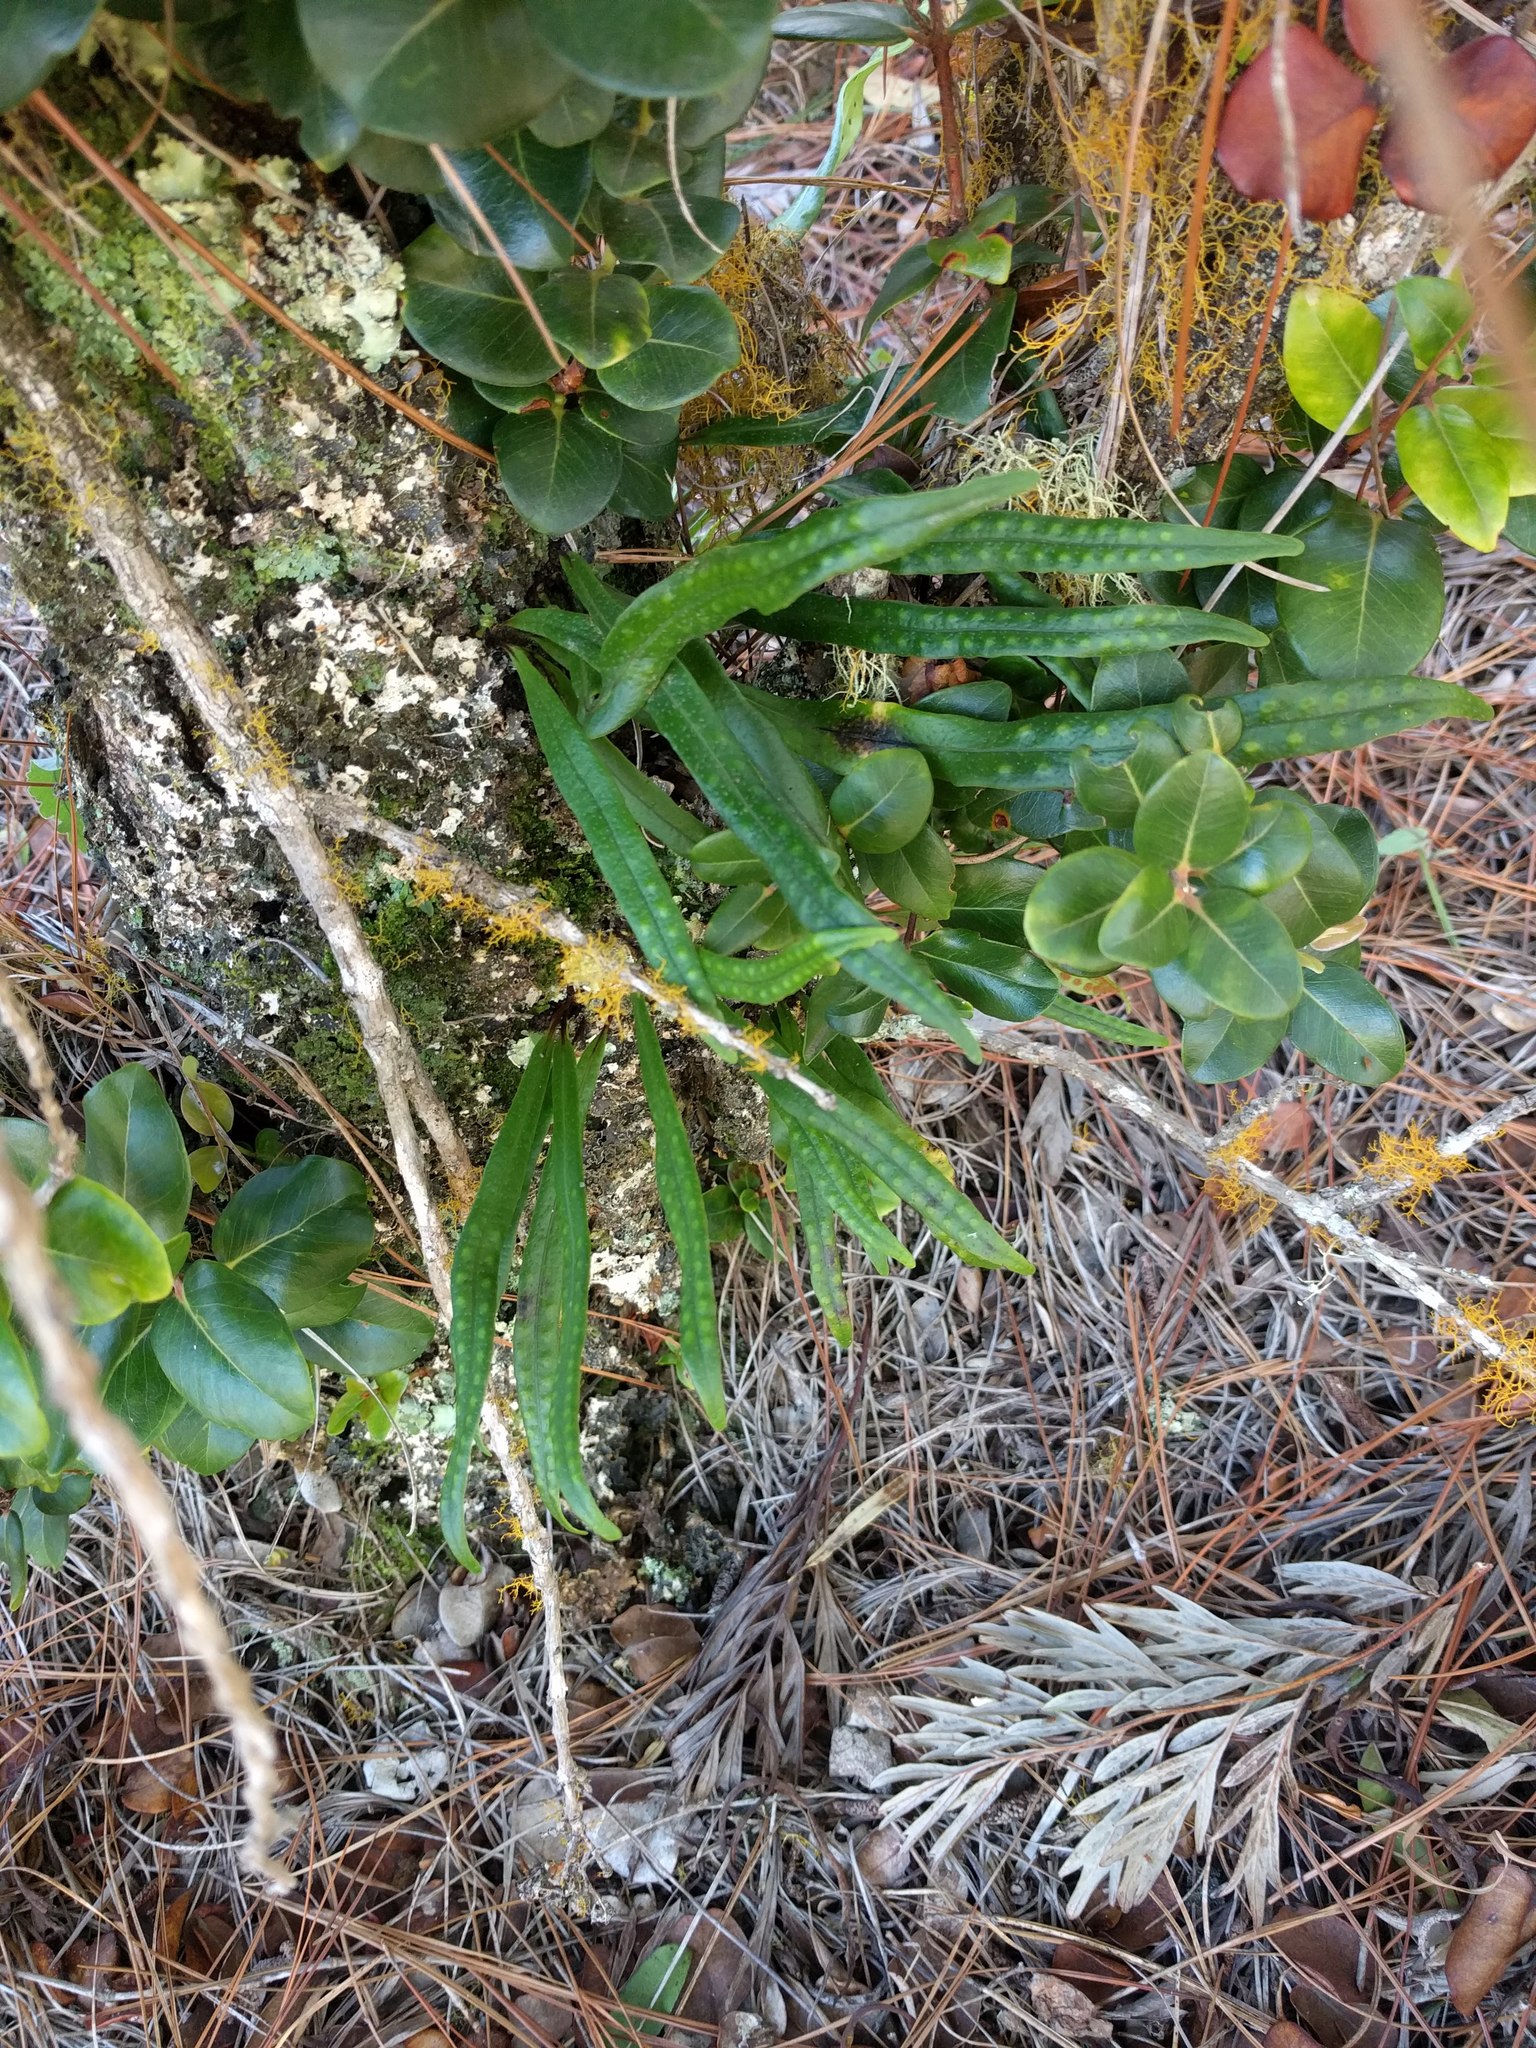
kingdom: Plantae
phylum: Tracheophyta
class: Polypodiopsida
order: Polypodiales
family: Polypodiaceae
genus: Lepisorus
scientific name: Lepisorus thunbergianus
